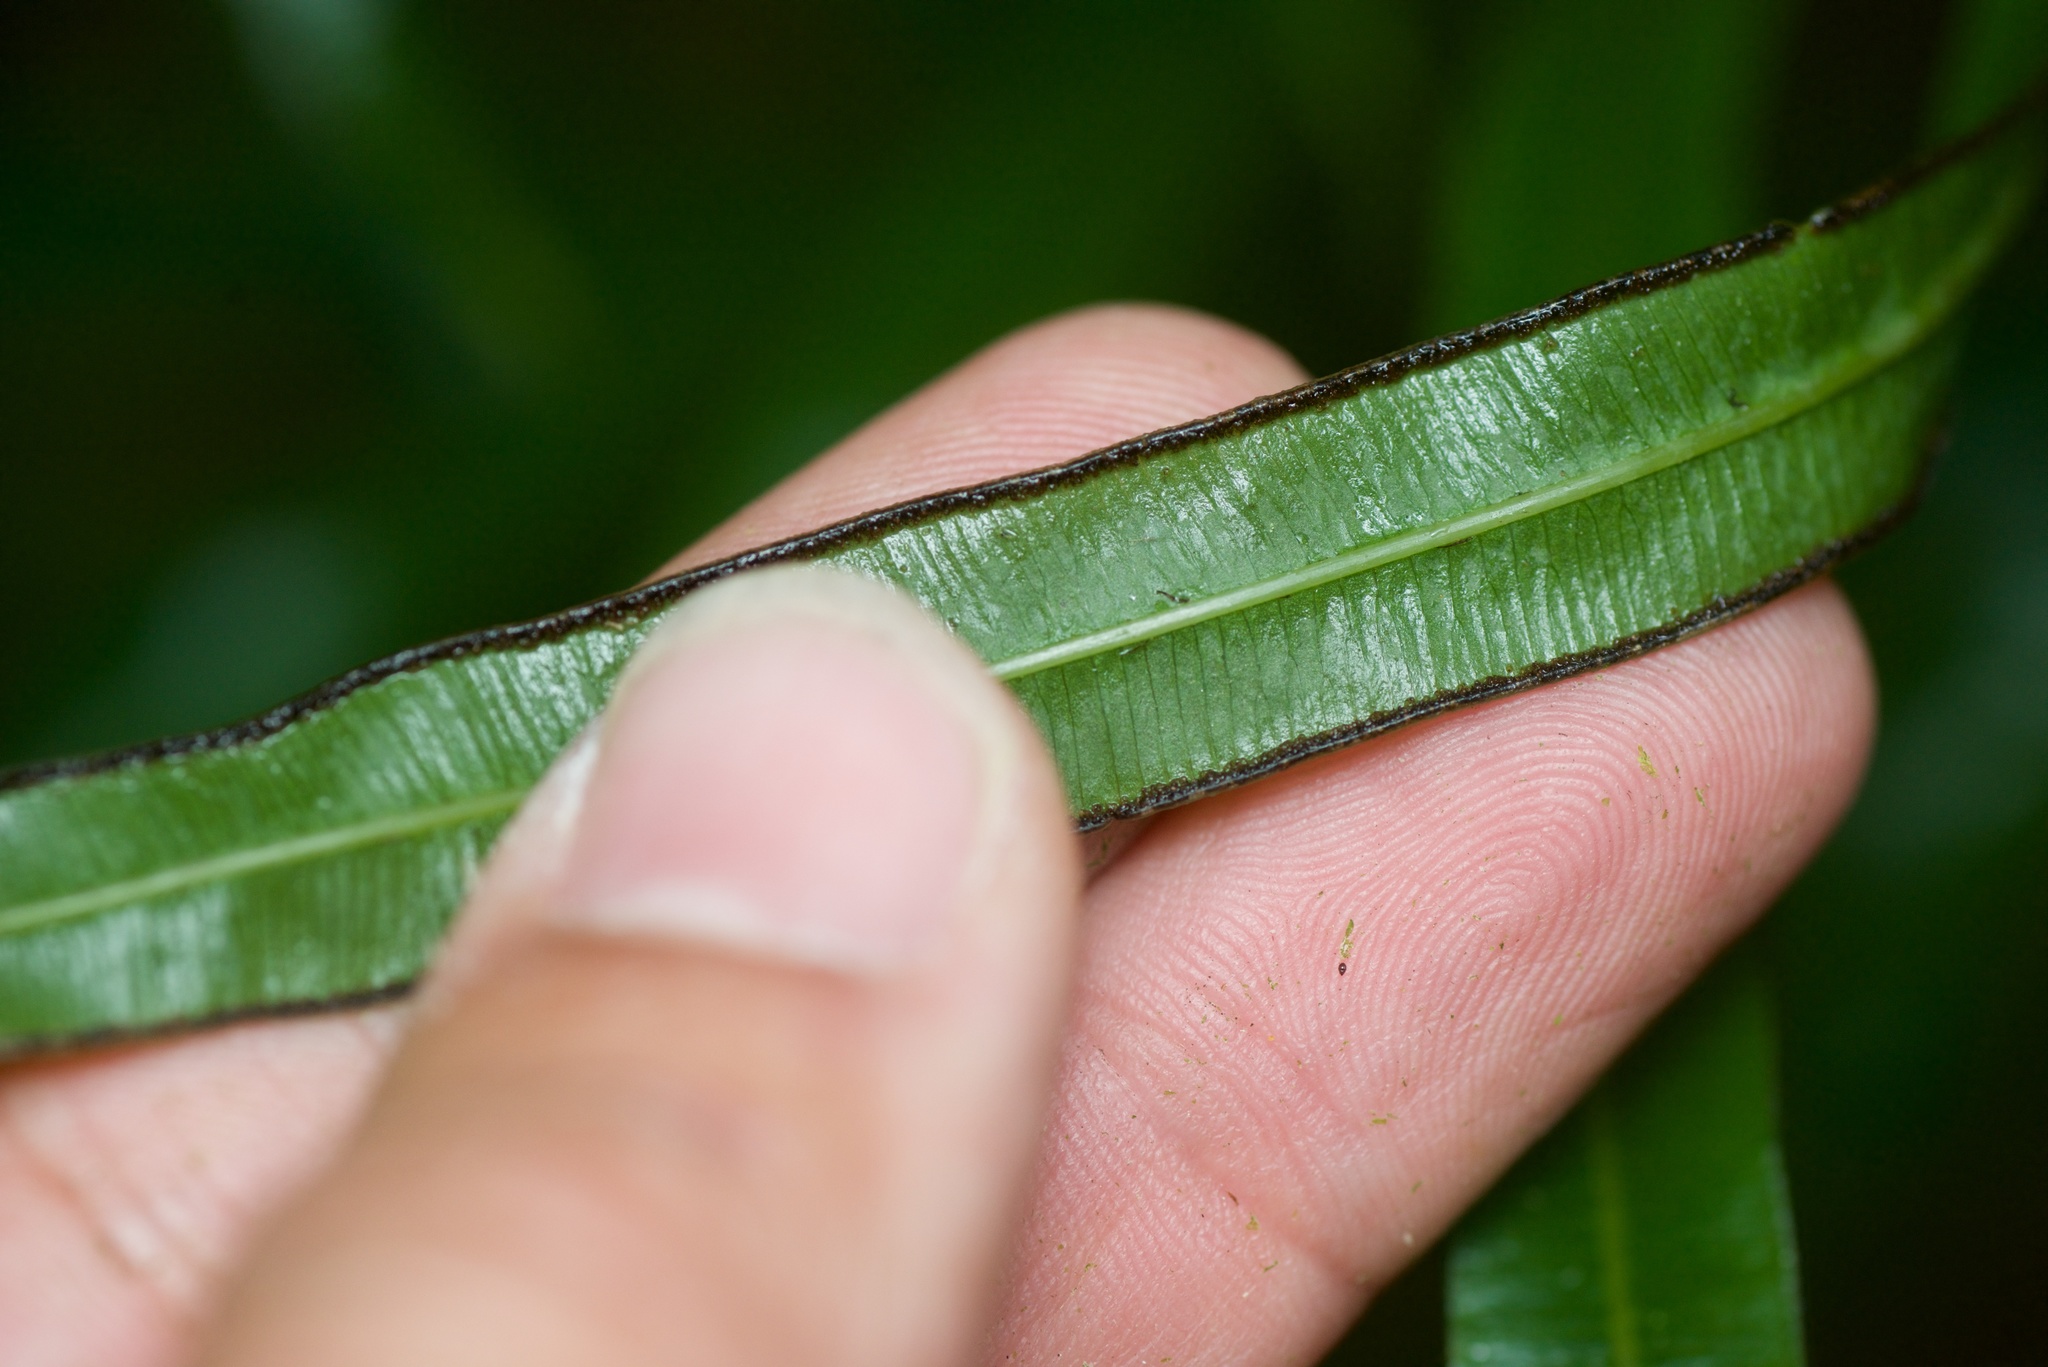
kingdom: Plantae
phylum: Tracheophyta
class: Polypodiopsida
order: Polypodiales
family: Pteridaceae
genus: Pteris
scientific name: Pteris cretica
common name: Ribbon fern
